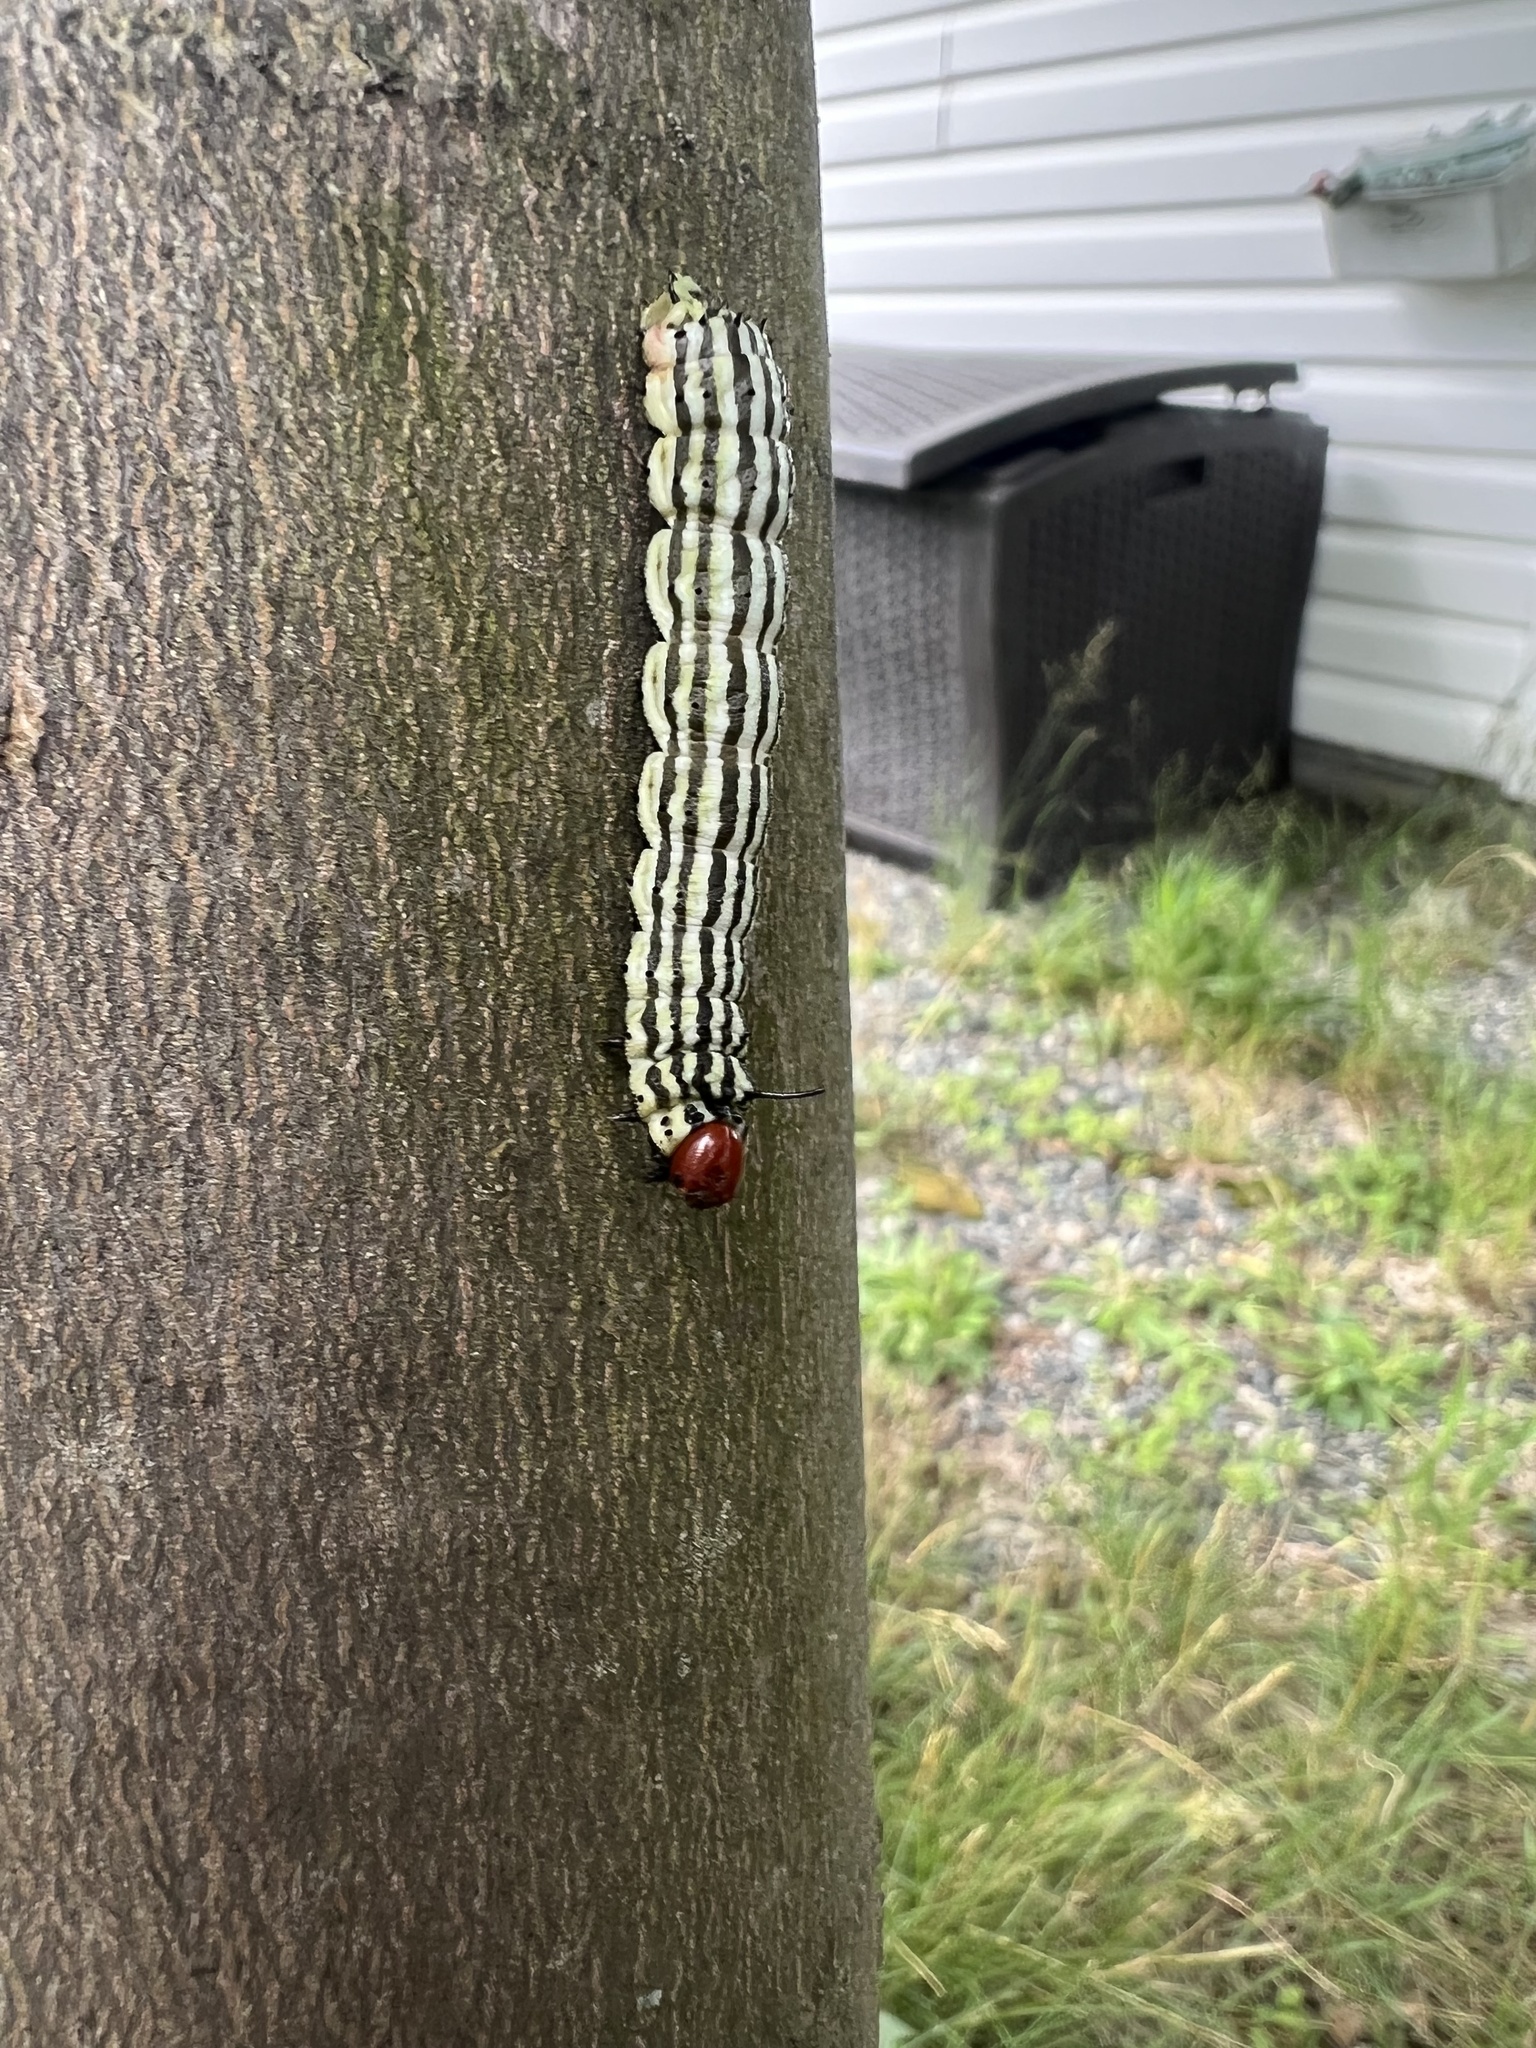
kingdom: Animalia
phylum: Arthropoda
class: Insecta
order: Lepidoptera
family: Saturniidae
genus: Dryocampa
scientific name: Dryocampa rubicunda
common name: Rosy maple moth
